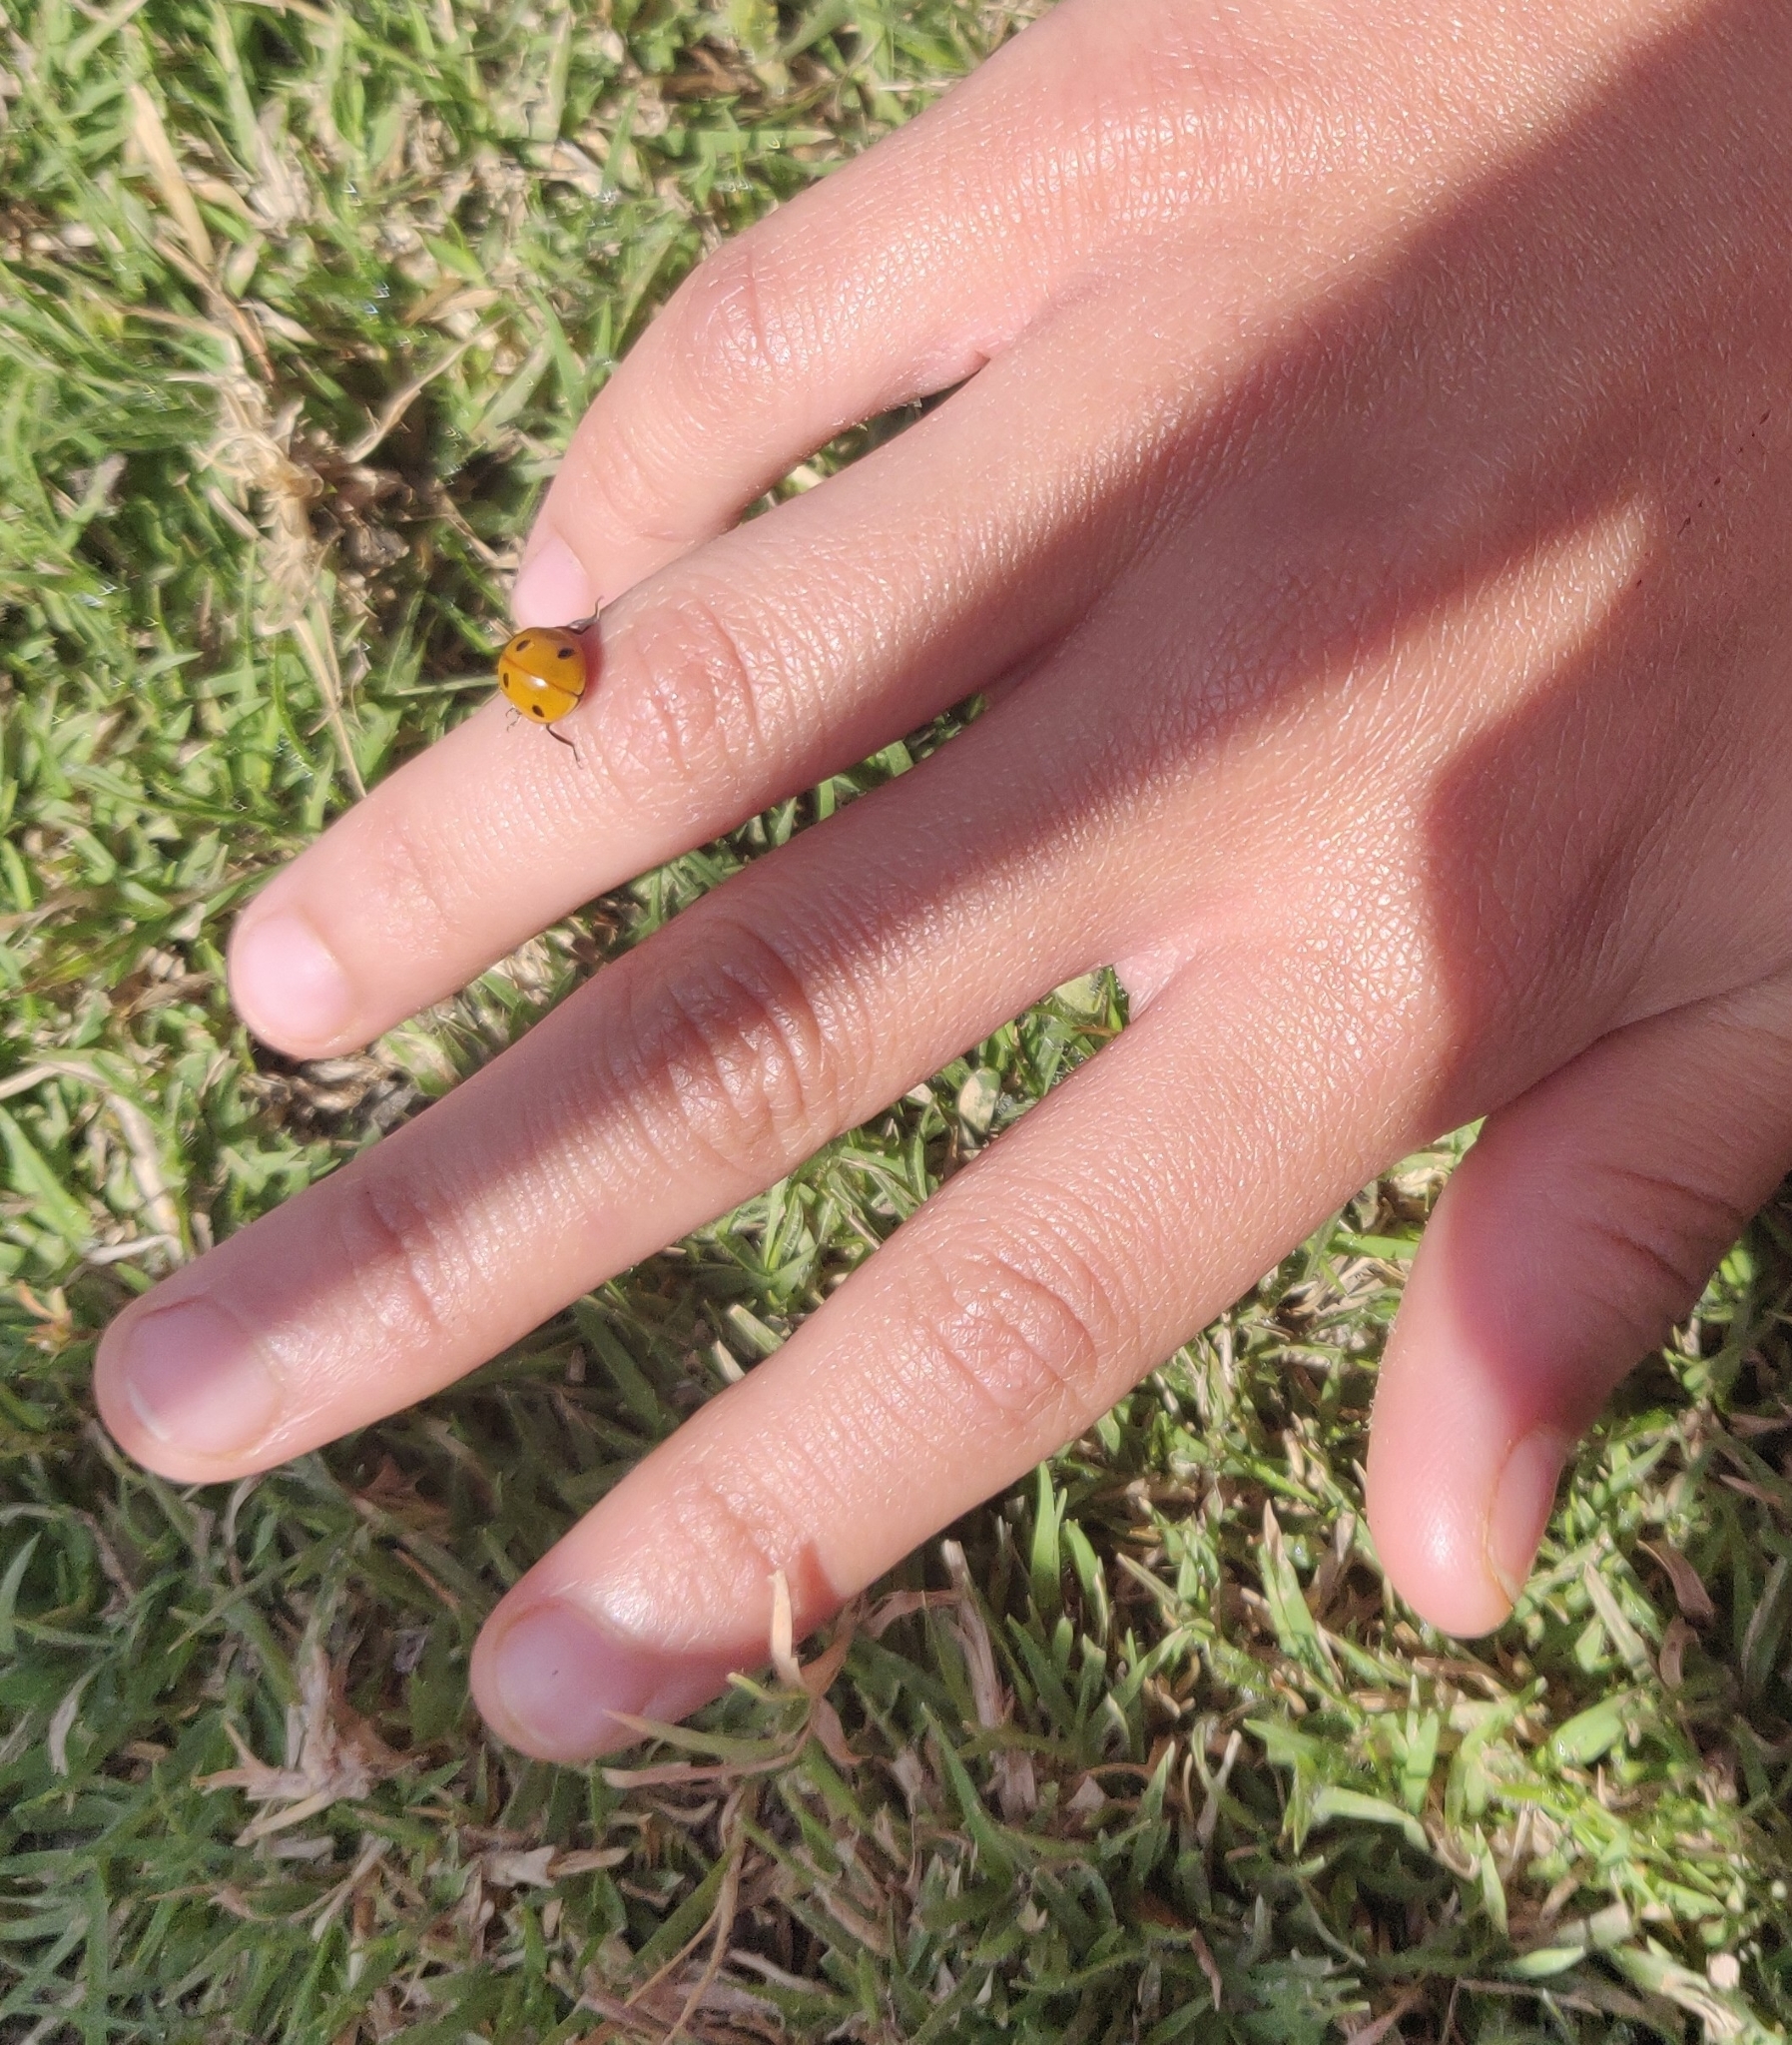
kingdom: Animalia
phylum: Arthropoda
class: Insecta
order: Coleoptera
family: Coccinellidae
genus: Coccinella
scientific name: Coccinella septempunctata
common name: Sevenspotted lady beetle
